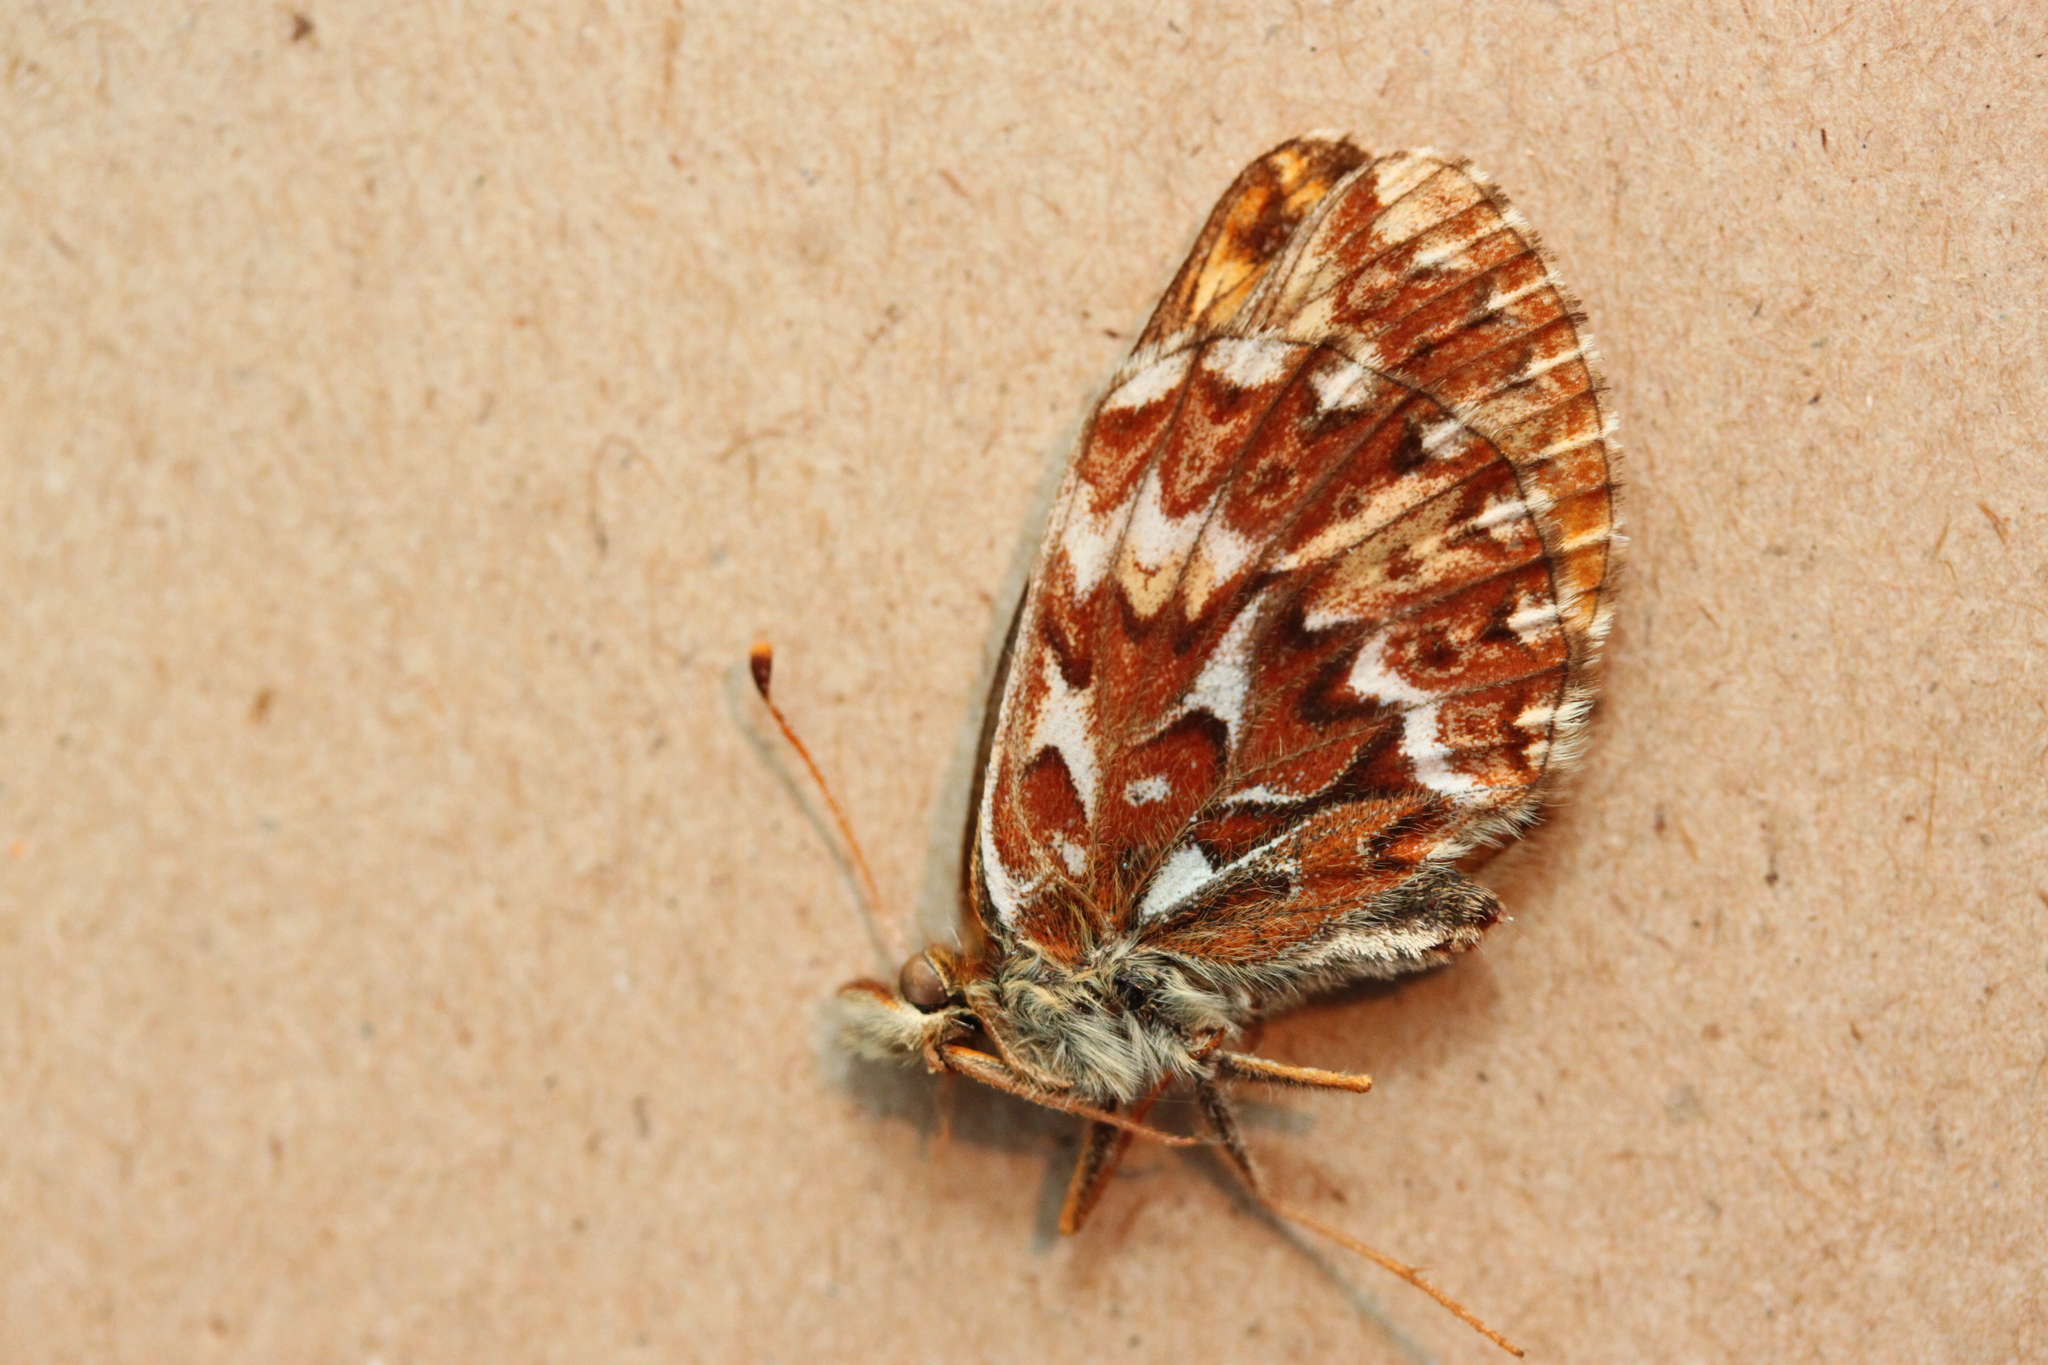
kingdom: Animalia
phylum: Arthropoda
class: Insecta
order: Lepidoptera
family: Nymphalidae
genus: Boloria
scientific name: Boloria freija
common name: Freija fritillary
